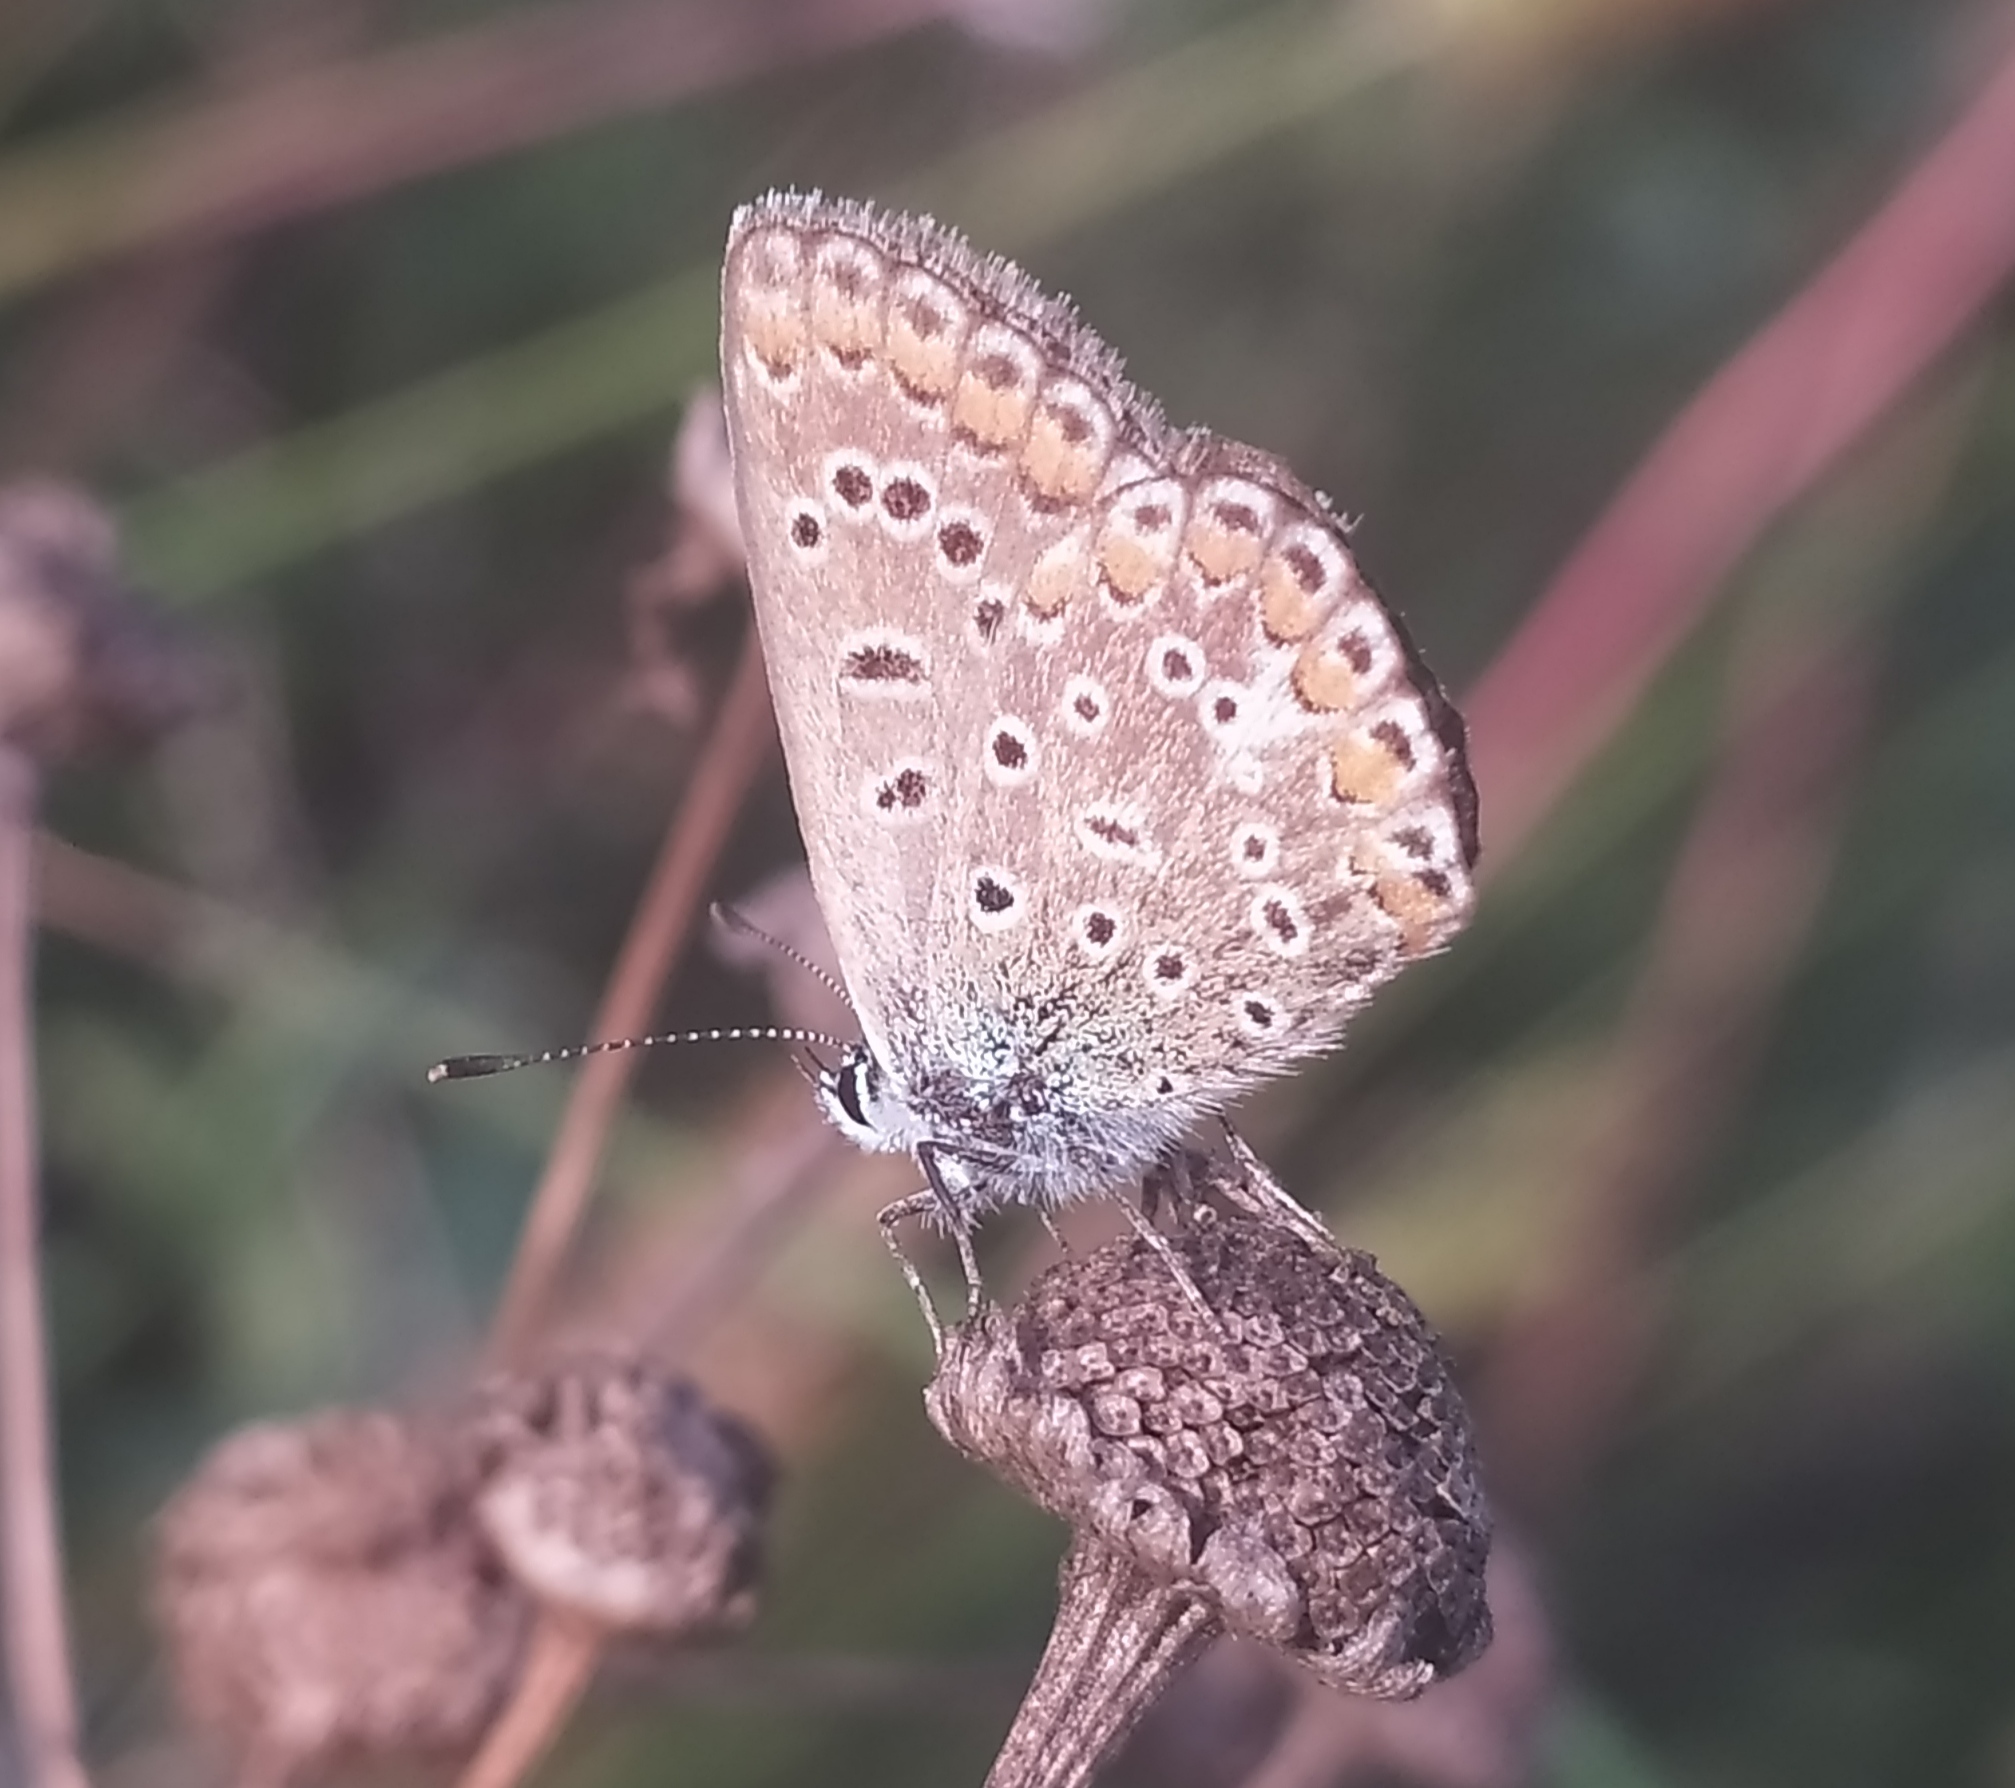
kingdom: Animalia
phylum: Arthropoda
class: Insecta
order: Lepidoptera
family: Lycaenidae
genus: Polyommatus
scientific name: Polyommatus icarus
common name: Common blue
